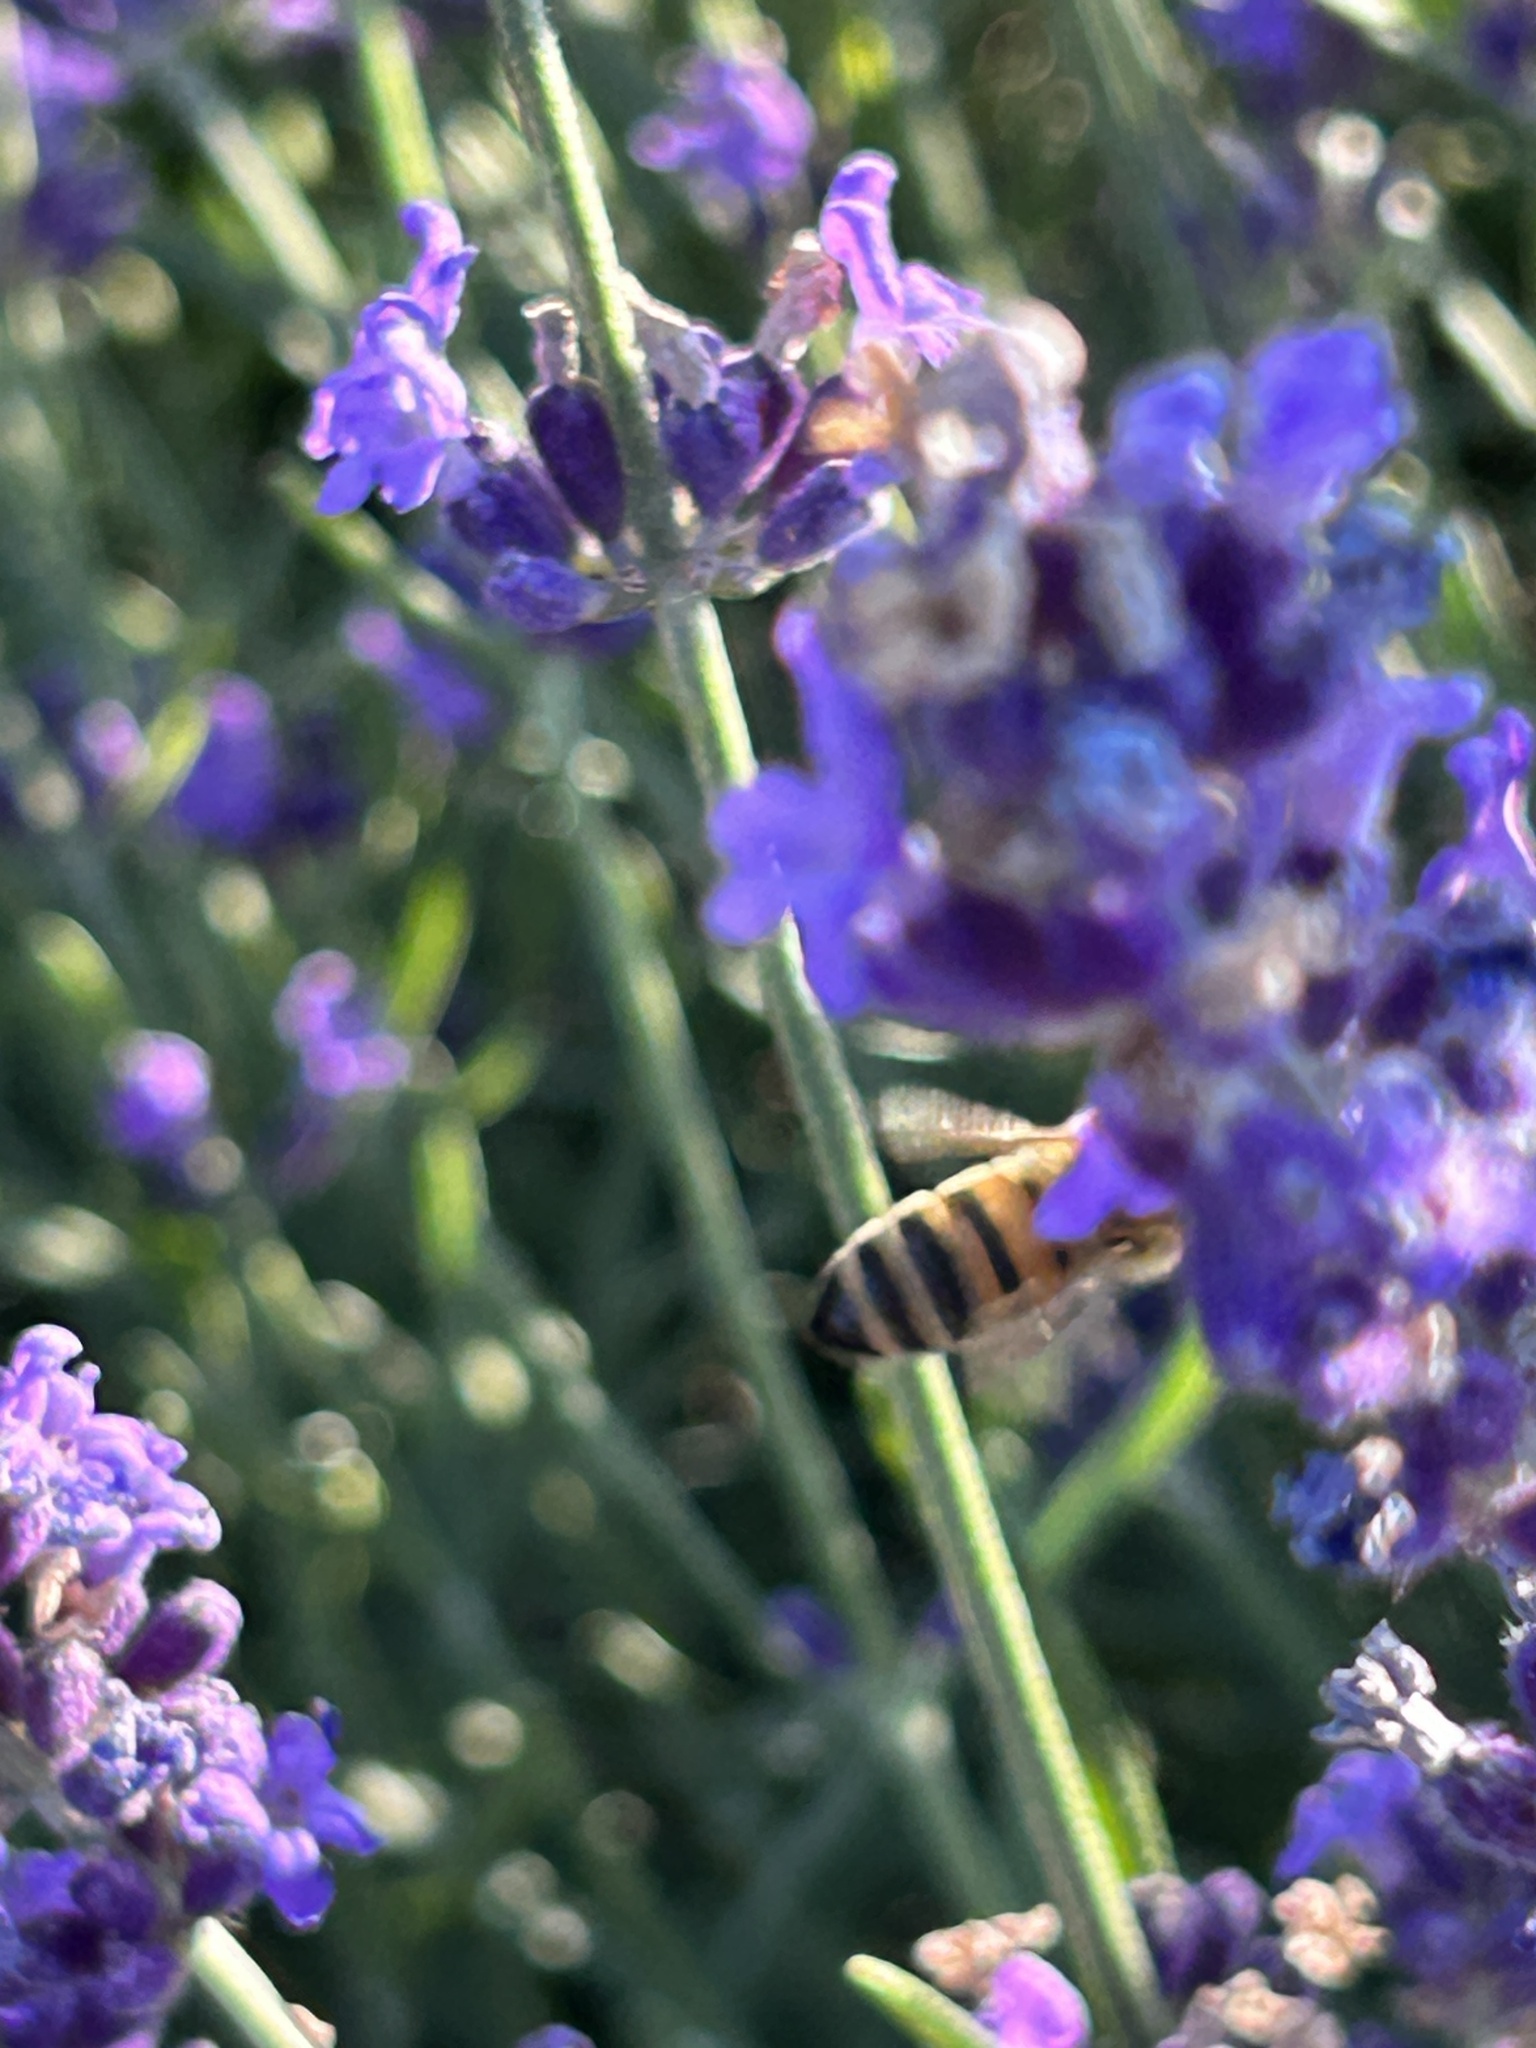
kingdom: Animalia
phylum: Arthropoda
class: Insecta
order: Hymenoptera
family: Apidae
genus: Apis
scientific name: Apis mellifera
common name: Honey bee
